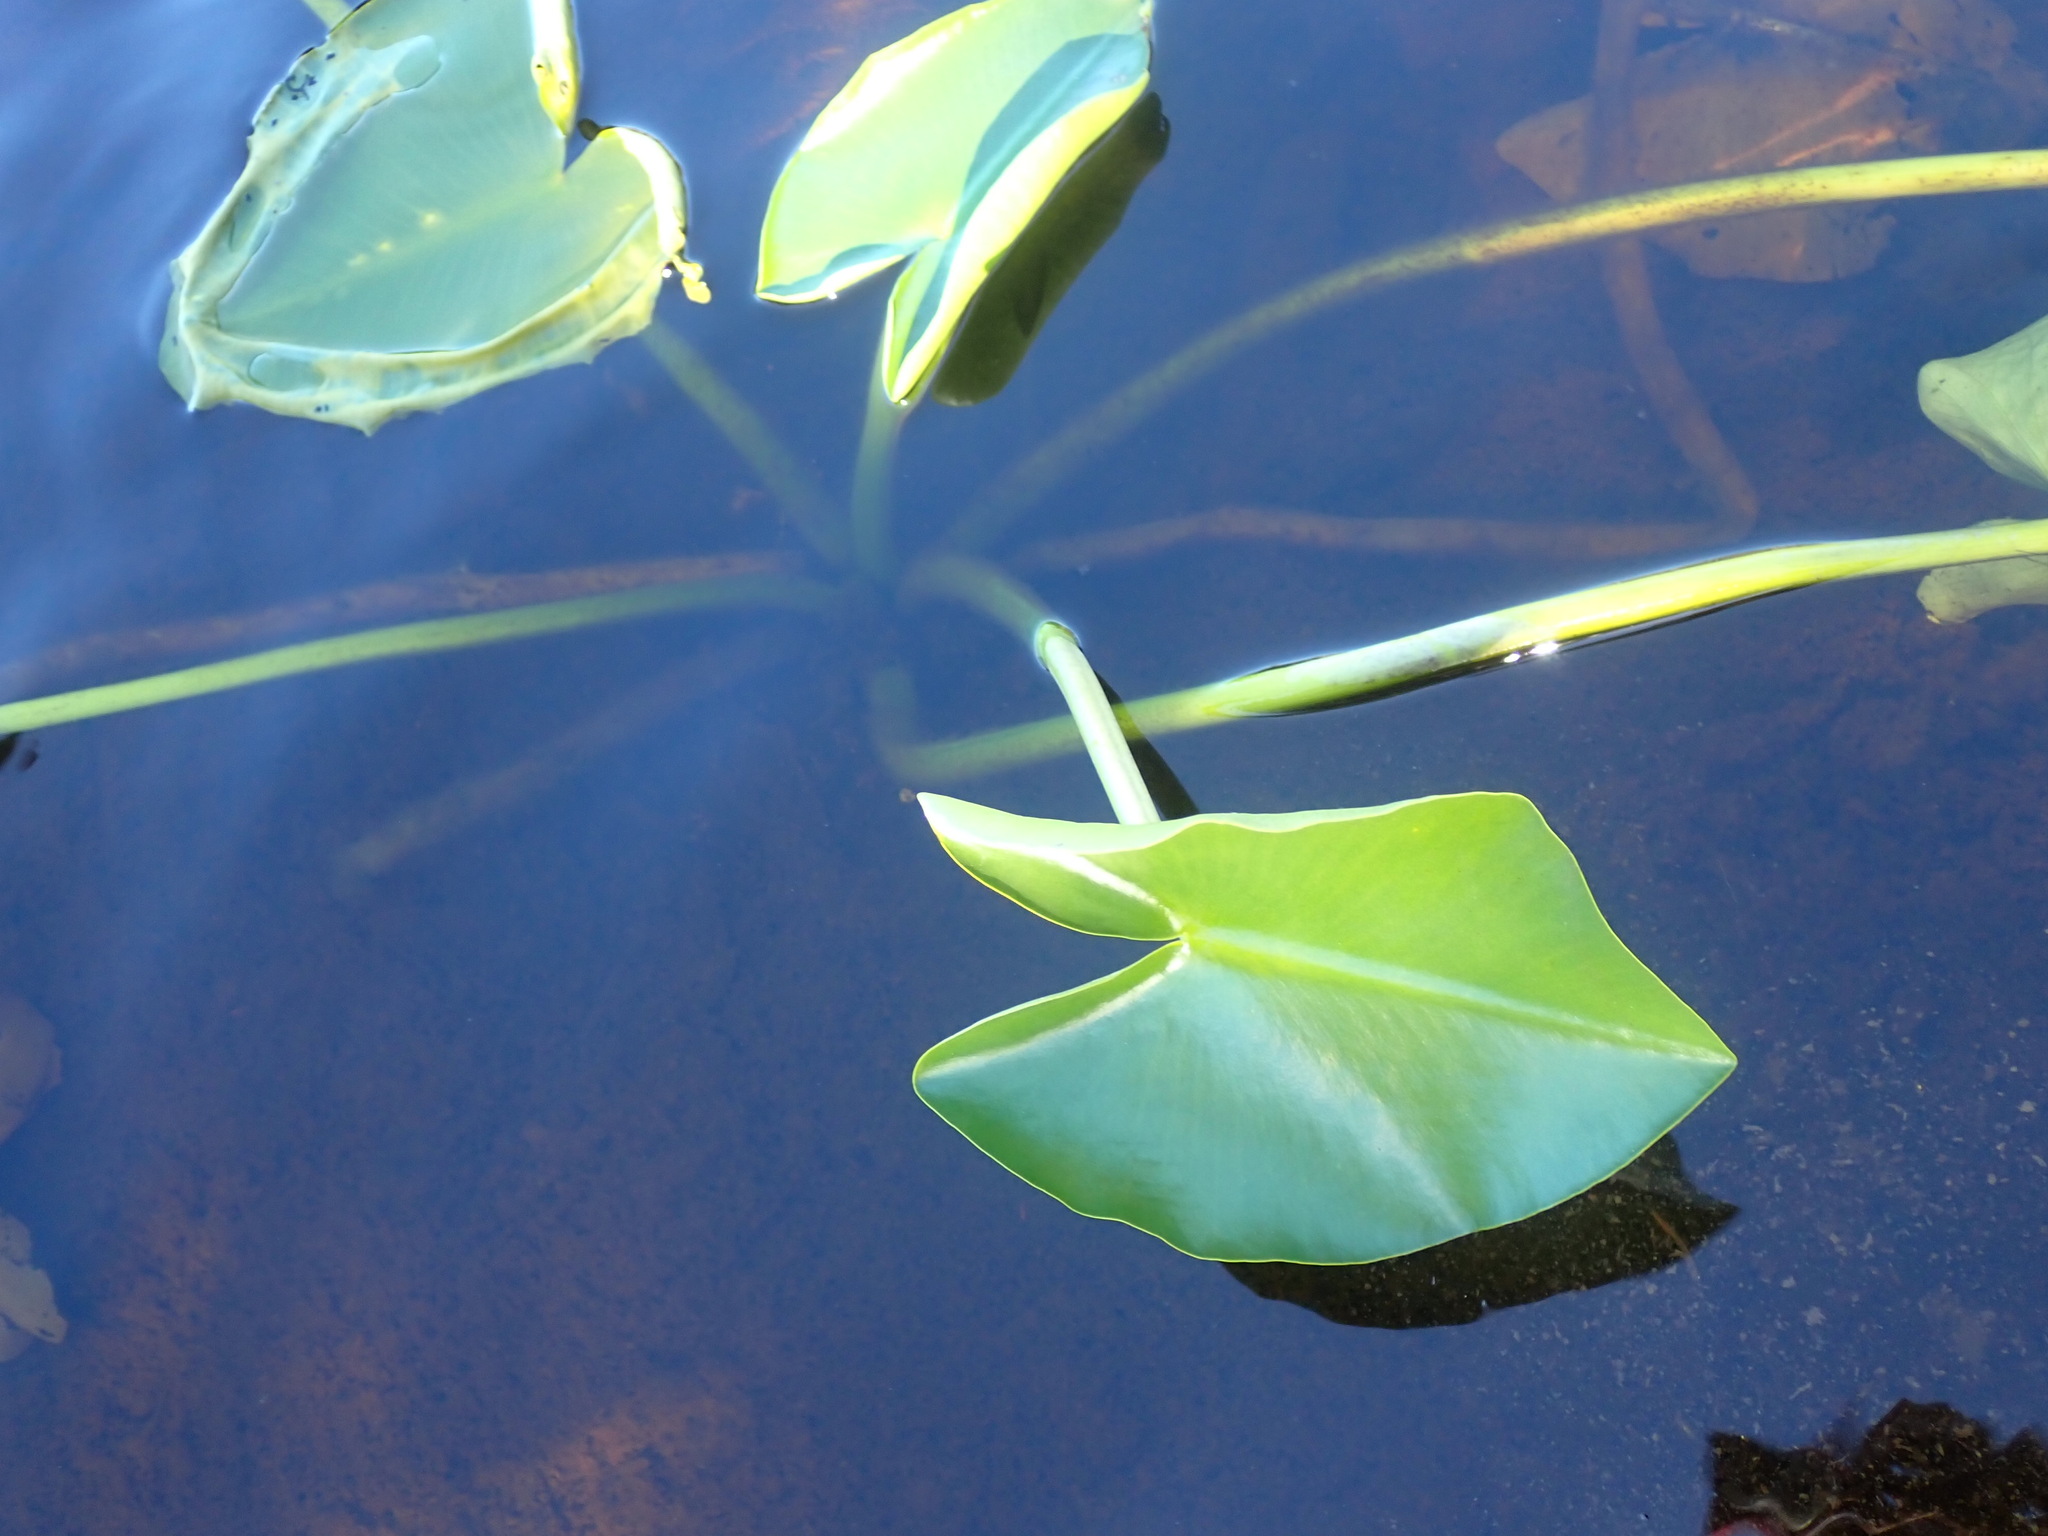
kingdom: Plantae
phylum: Tracheophyta
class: Magnoliopsida
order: Nymphaeales
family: Nymphaeaceae
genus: Nuphar
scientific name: Nuphar polysepala
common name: Rocky mountain cow-lily
